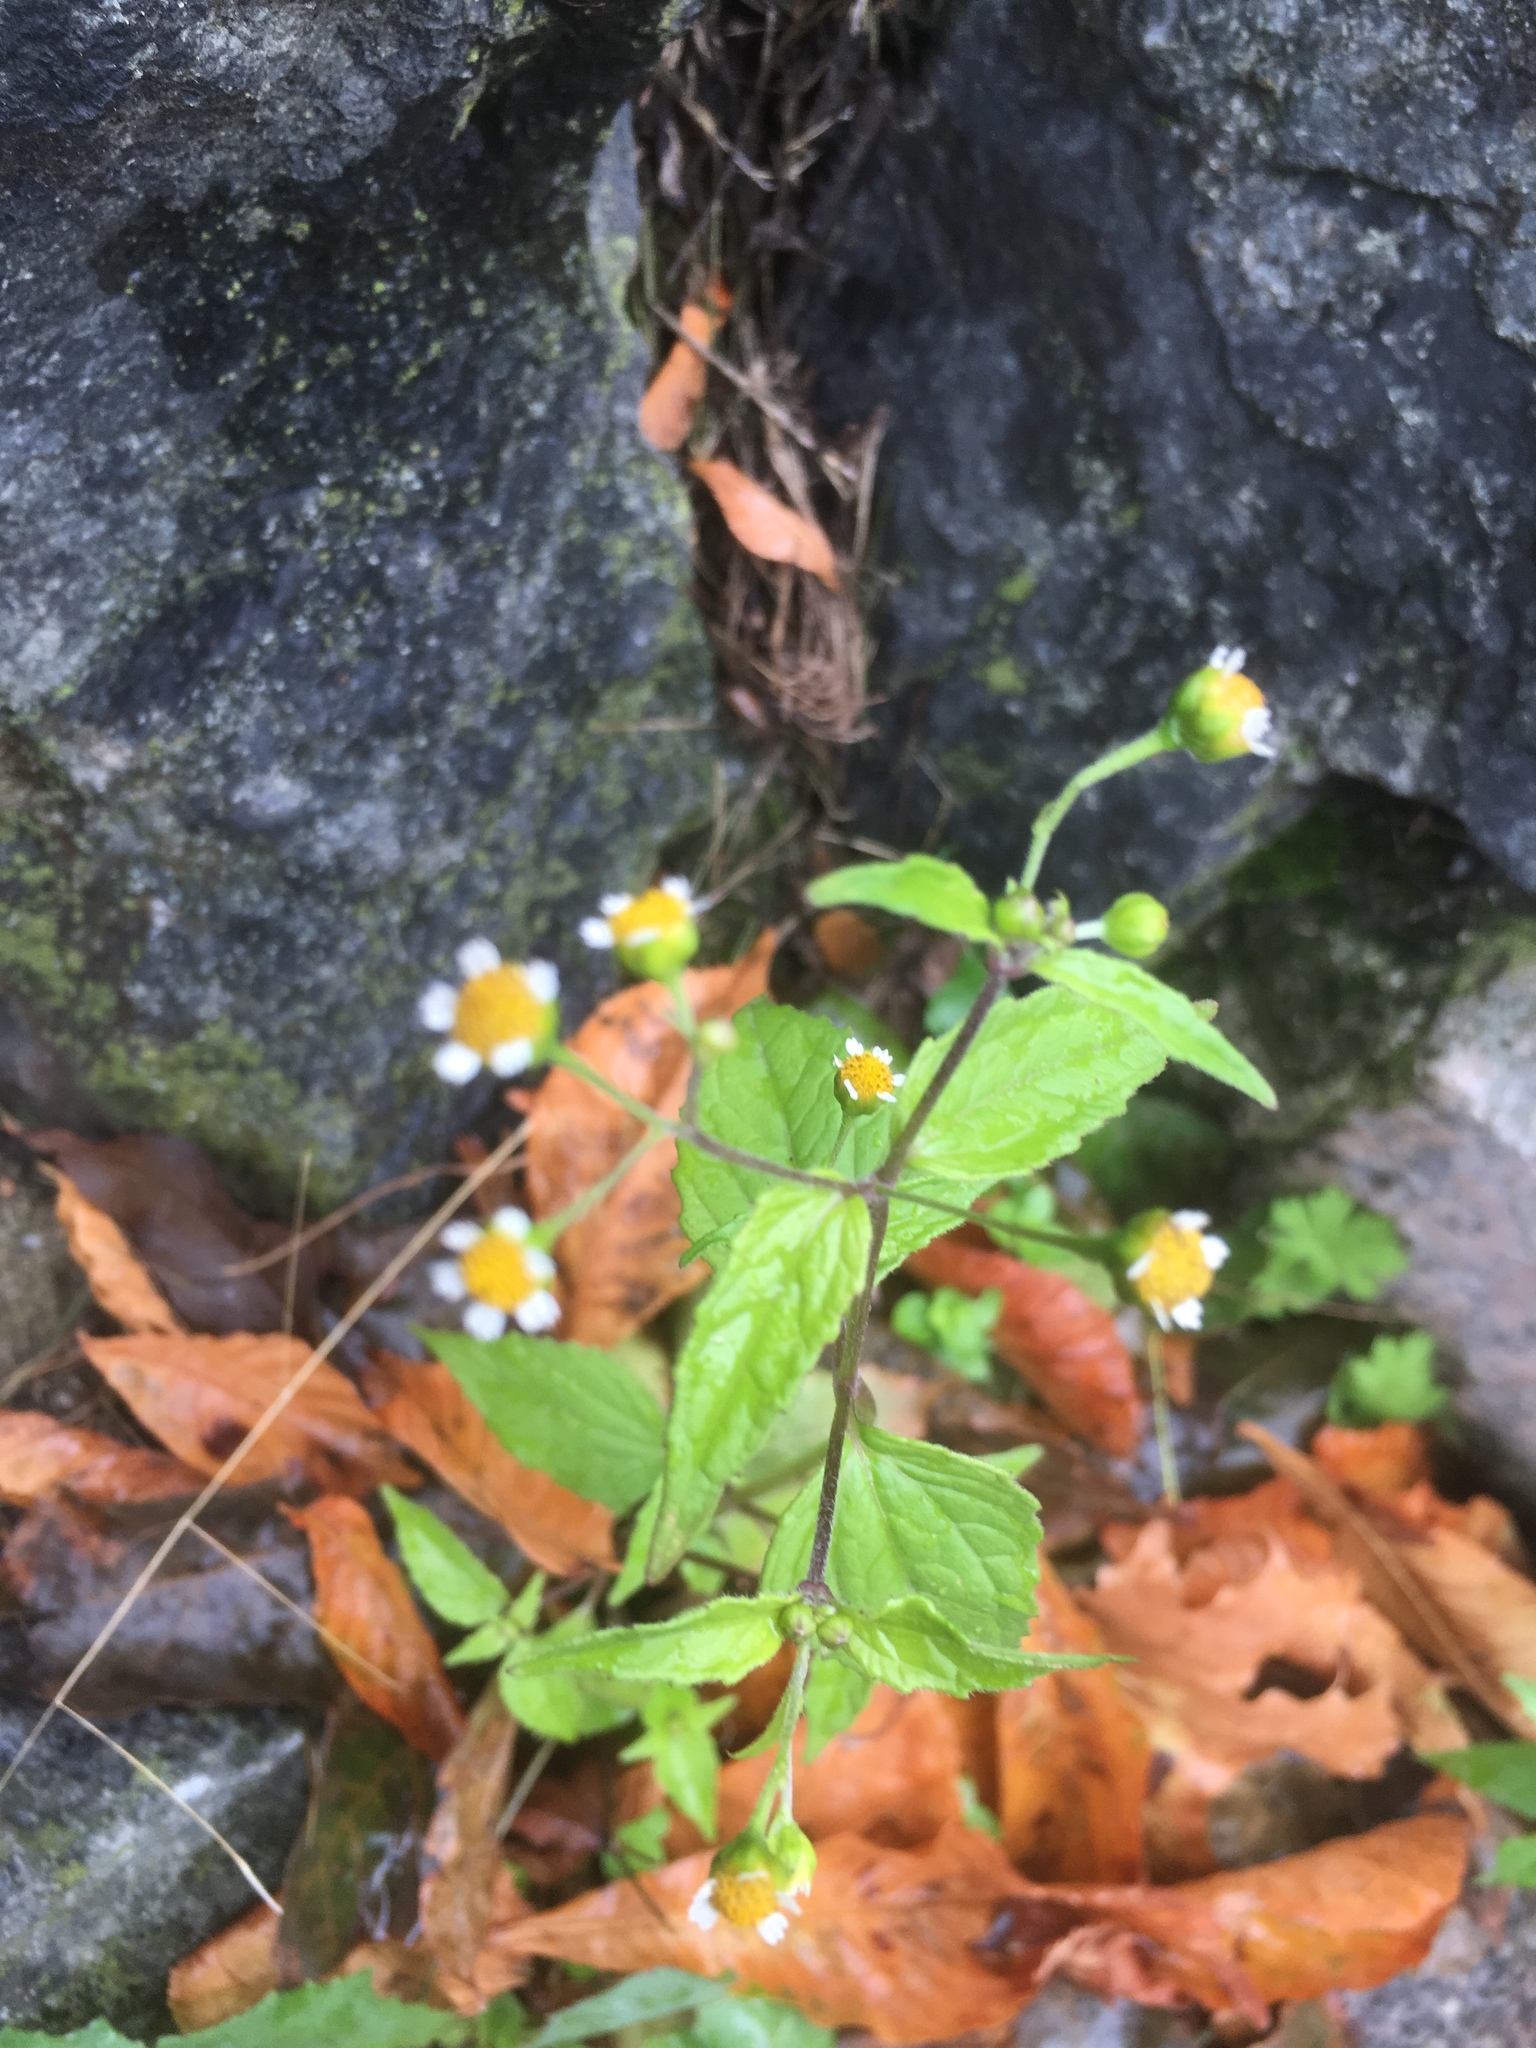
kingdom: Plantae
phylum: Tracheophyta
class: Magnoliopsida
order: Asterales
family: Asteraceae
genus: Galinsoga
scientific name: Galinsoga parviflora
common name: Gallant soldier
